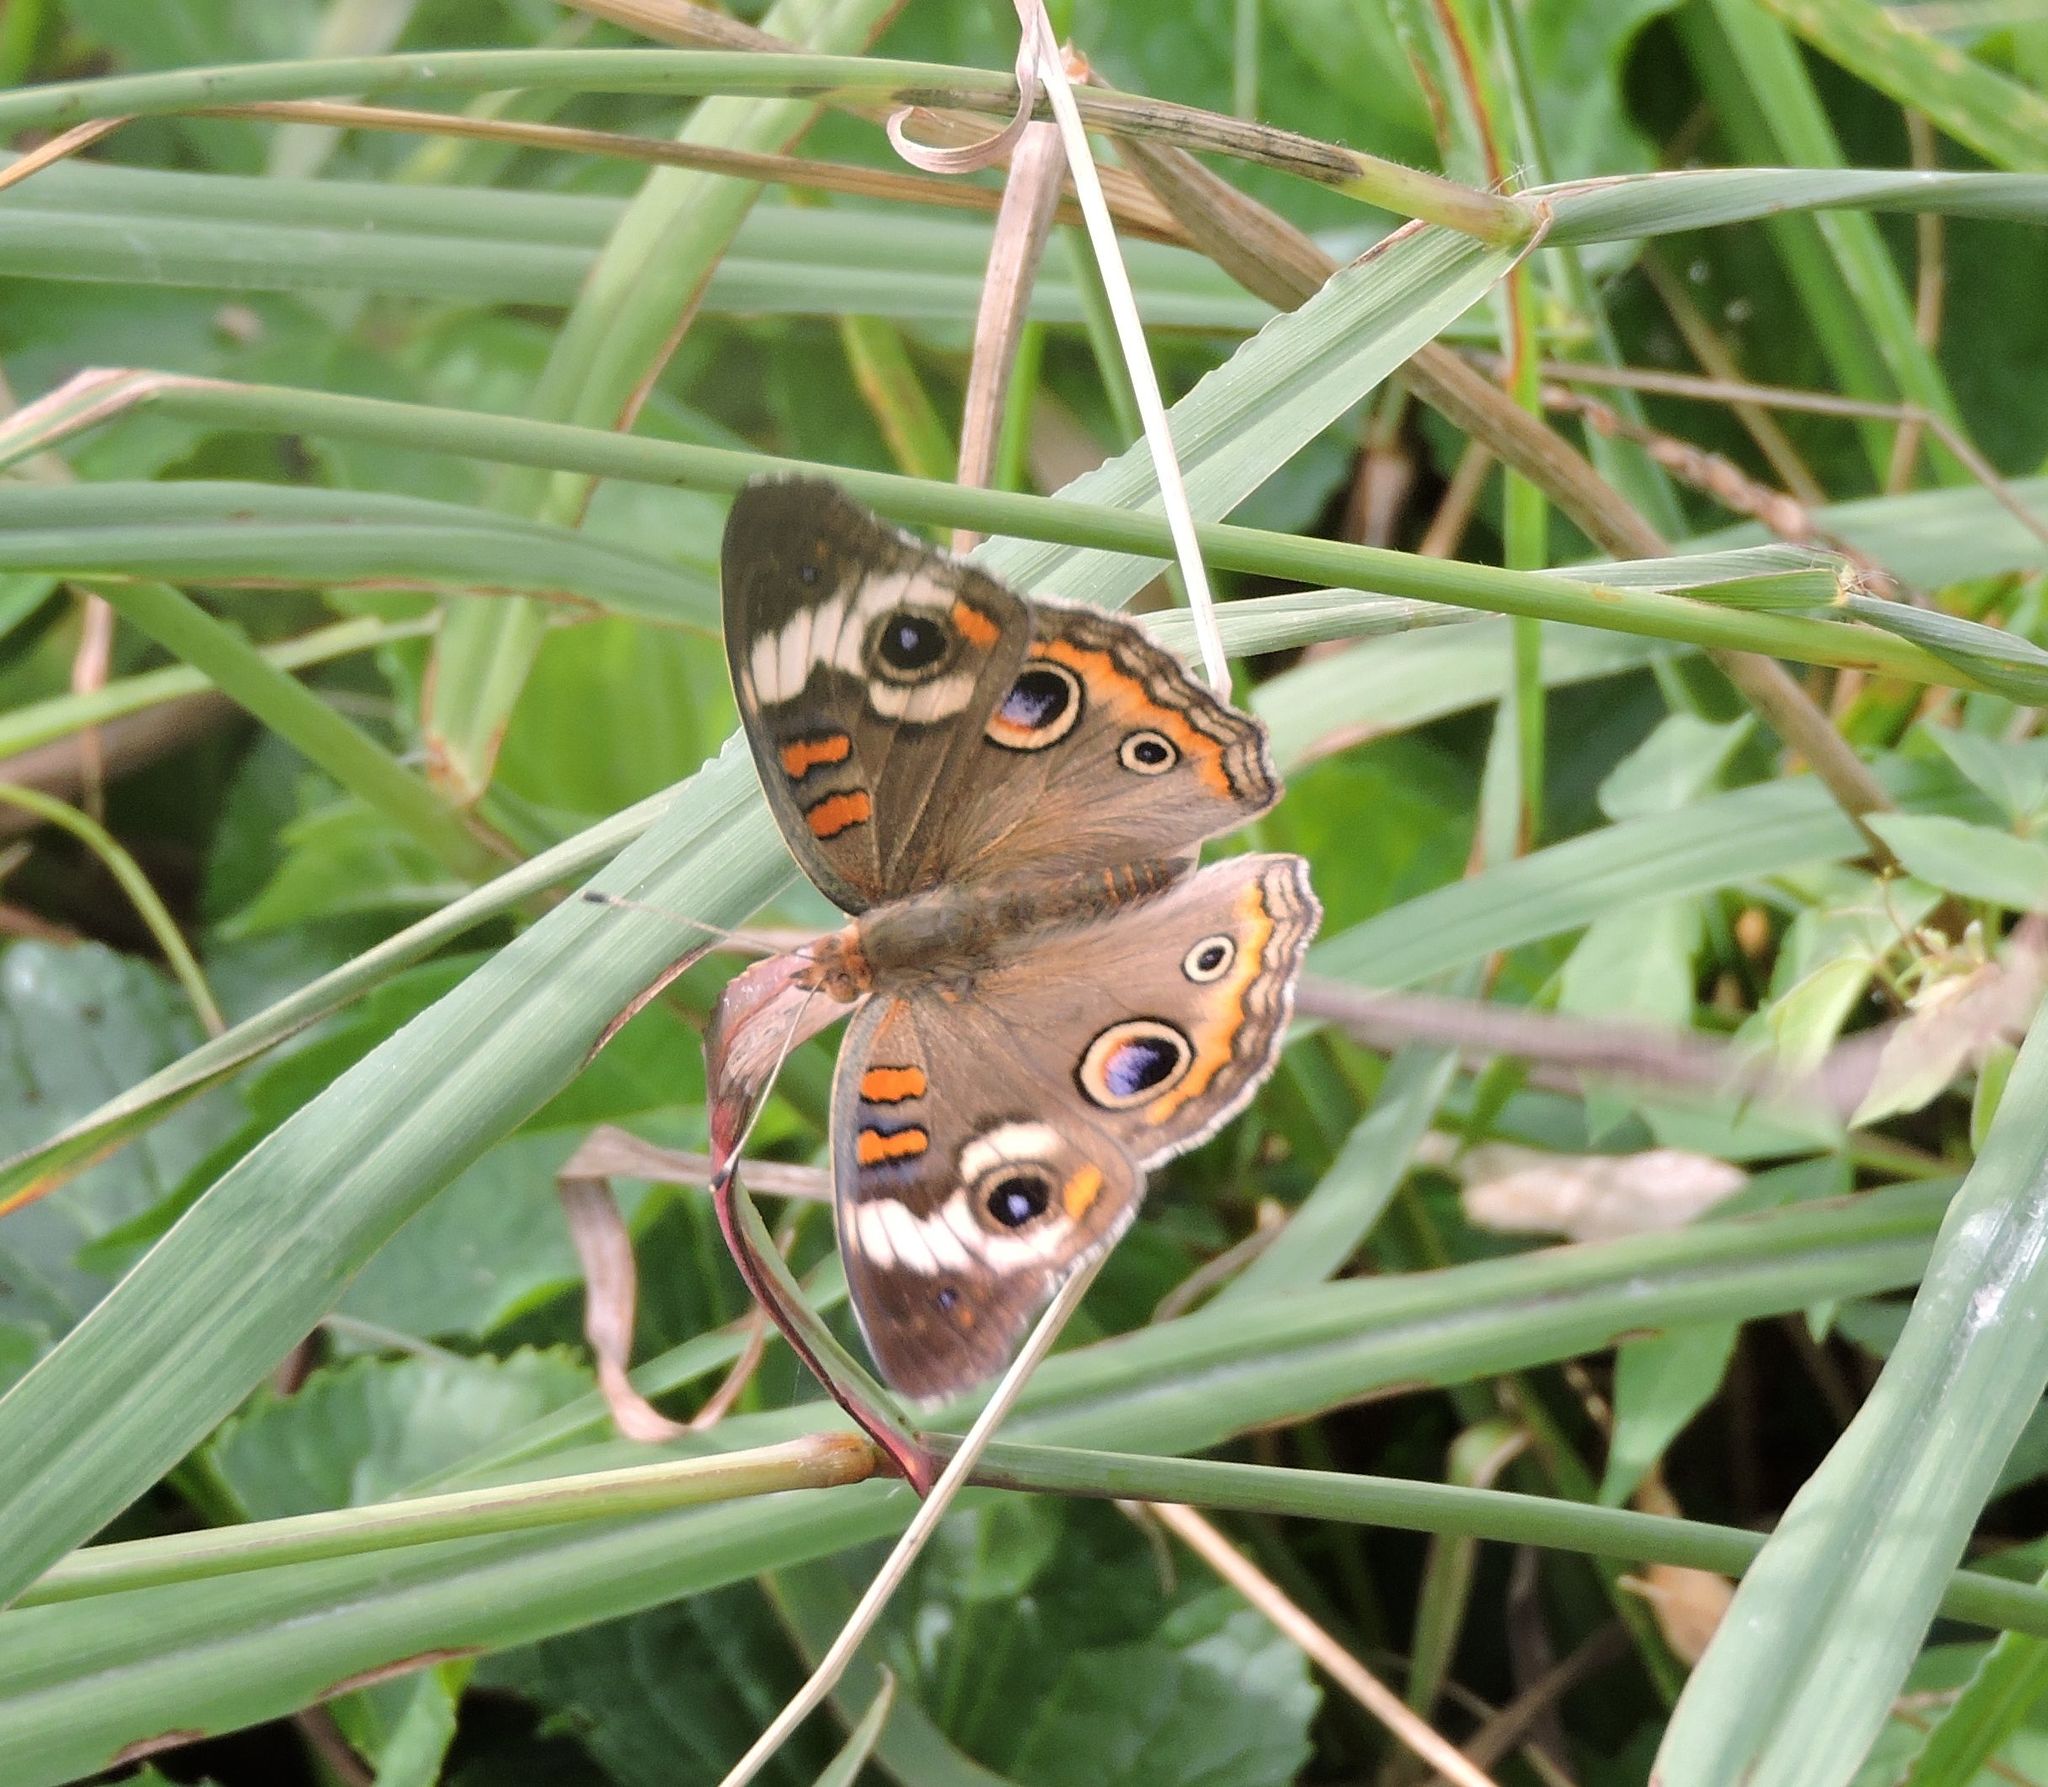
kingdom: Animalia
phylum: Arthropoda
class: Insecta
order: Lepidoptera
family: Nymphalidae
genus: Junonia
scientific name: Junonia coenia
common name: Common buckeye
